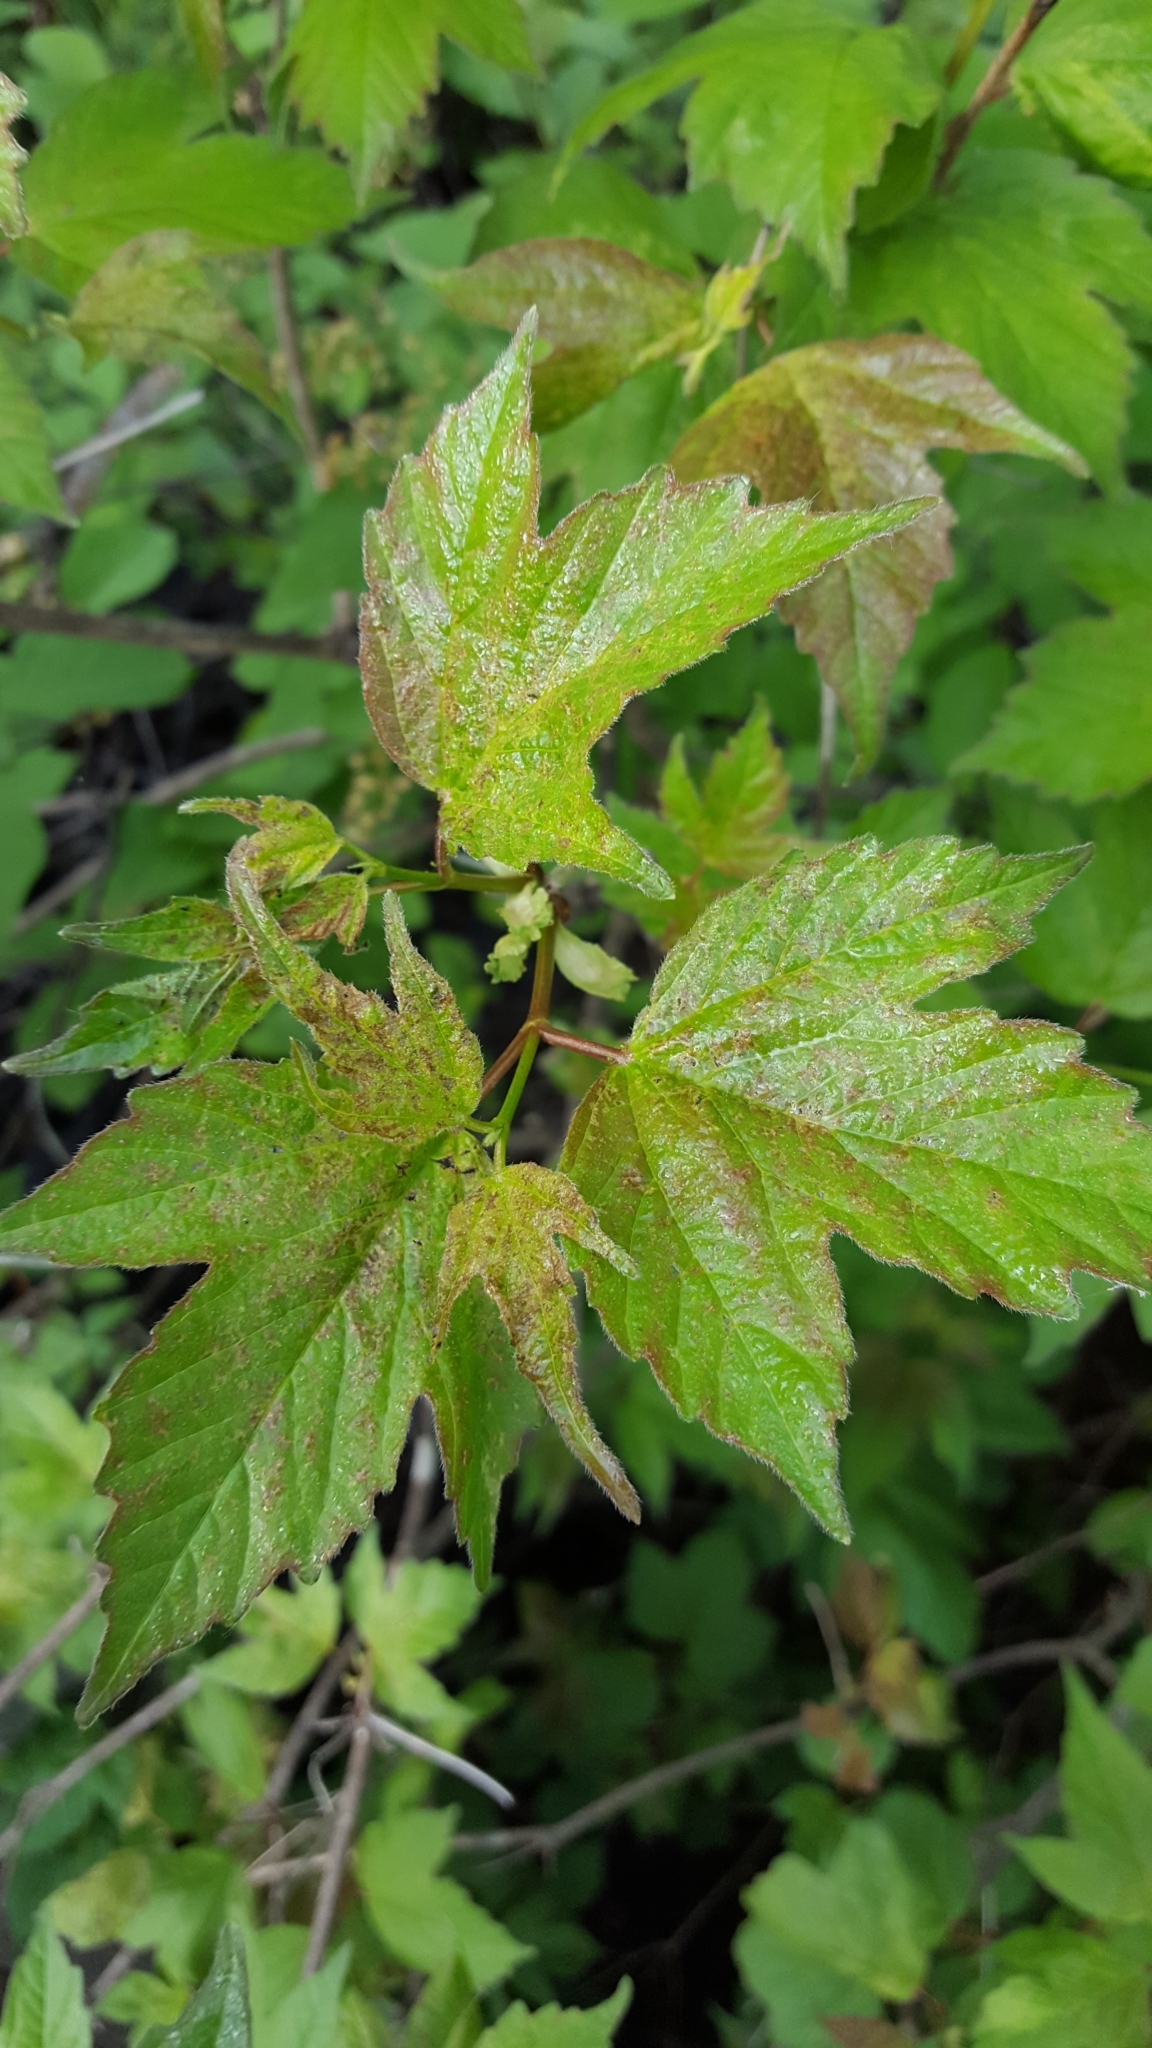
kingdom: Plantae
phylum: Tracheophyta
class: Magnoliopsida
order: Dipsacales
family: Viburnaceae
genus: Viburnum
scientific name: Viburnum trilobum
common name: American cranberrybush
